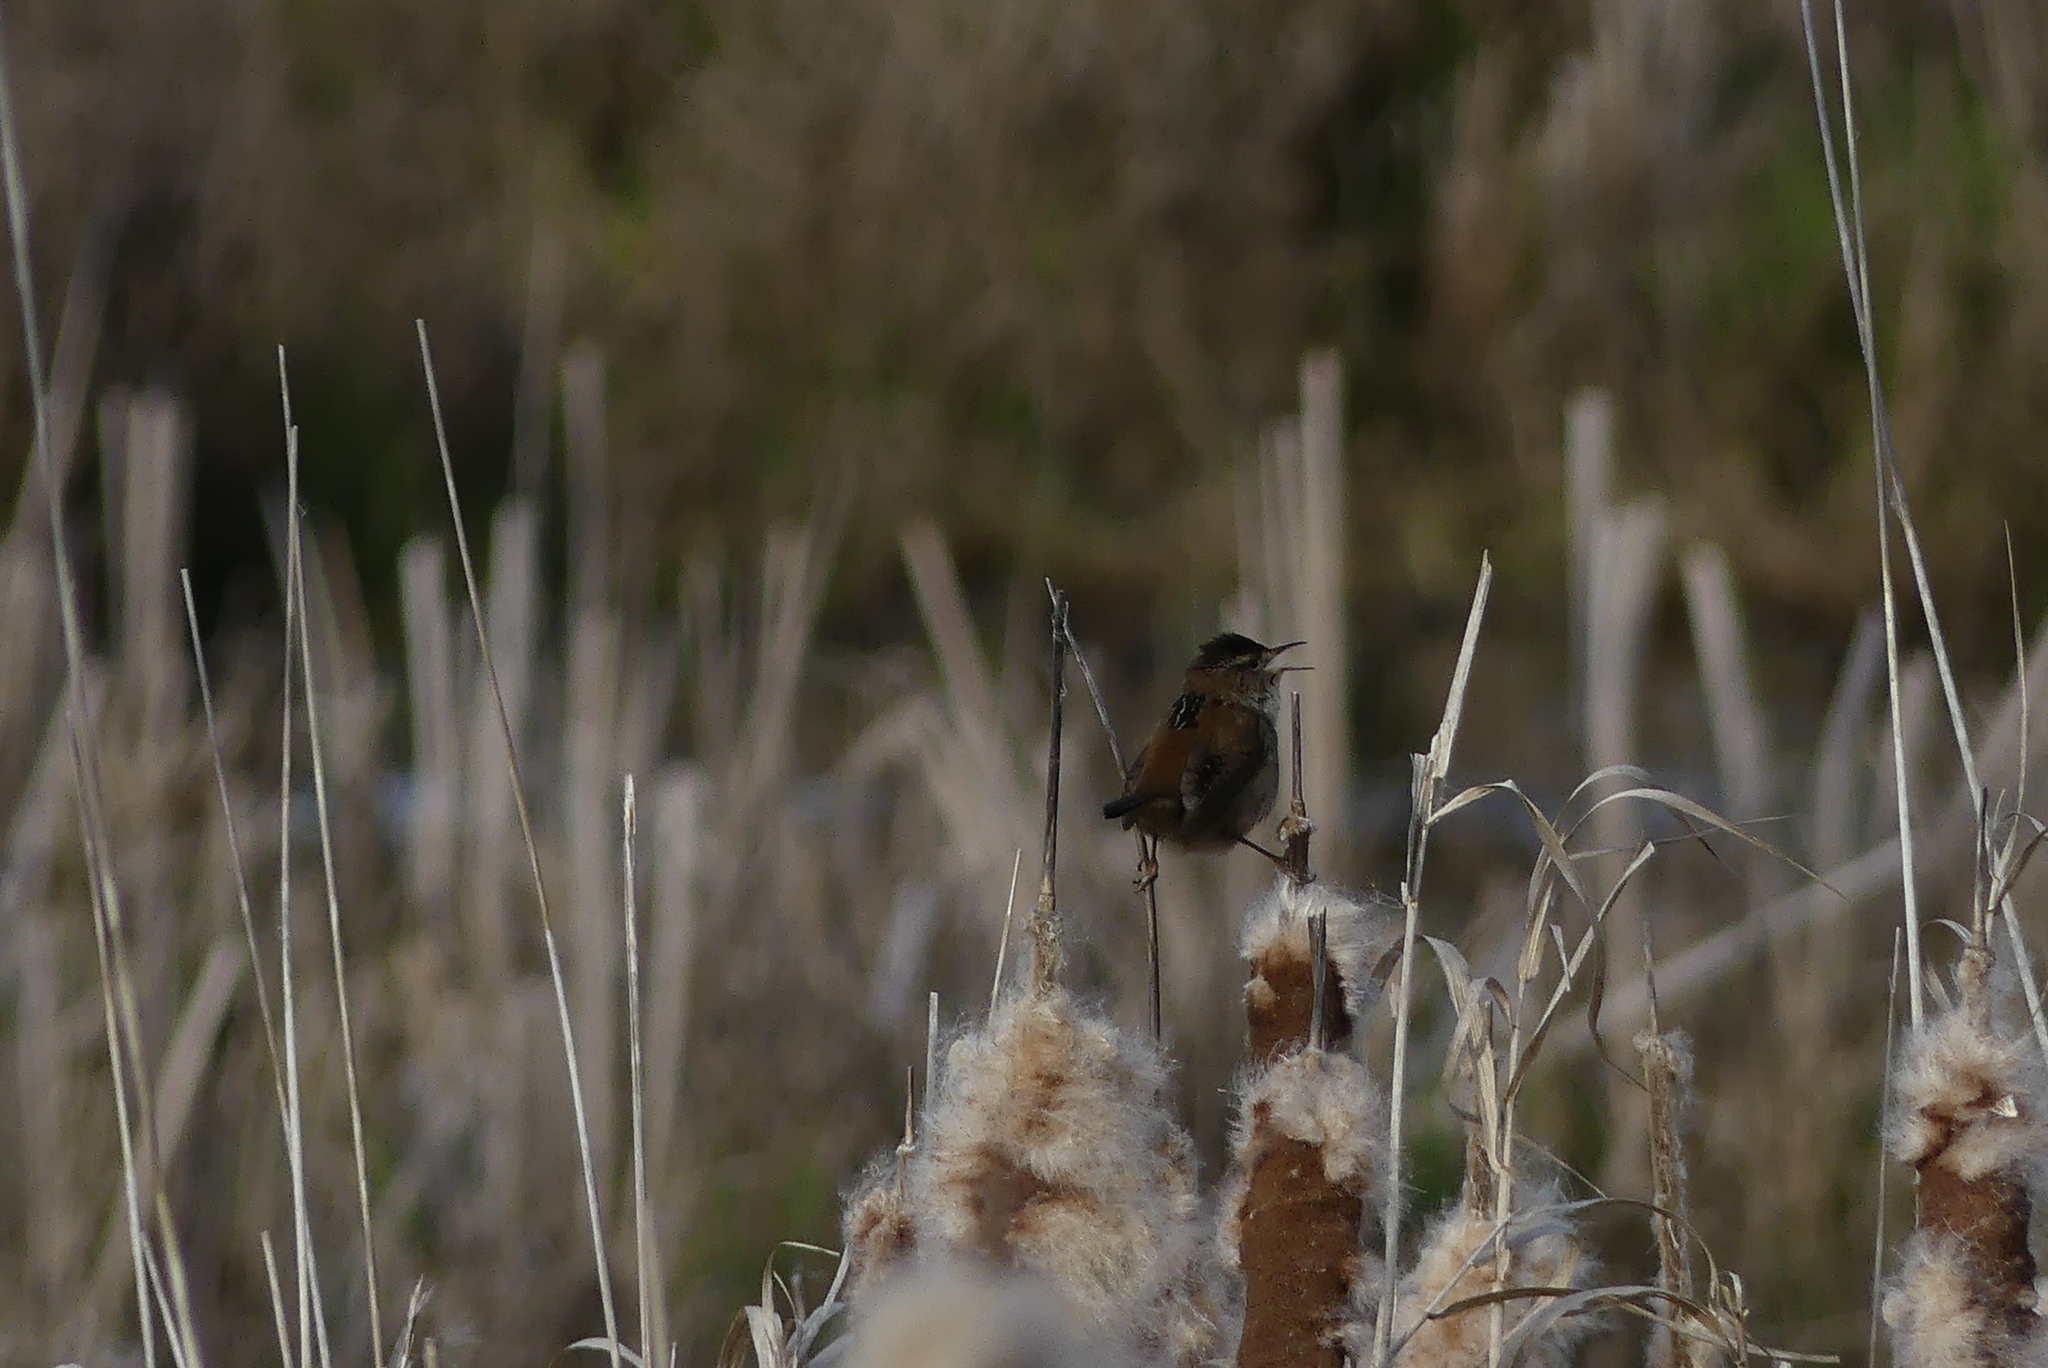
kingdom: Animalia
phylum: Chordata
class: Aves
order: Passeriformes
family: Troglodytidae
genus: Cistothorus
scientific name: Cistothorus palustris
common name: Marsh wren
